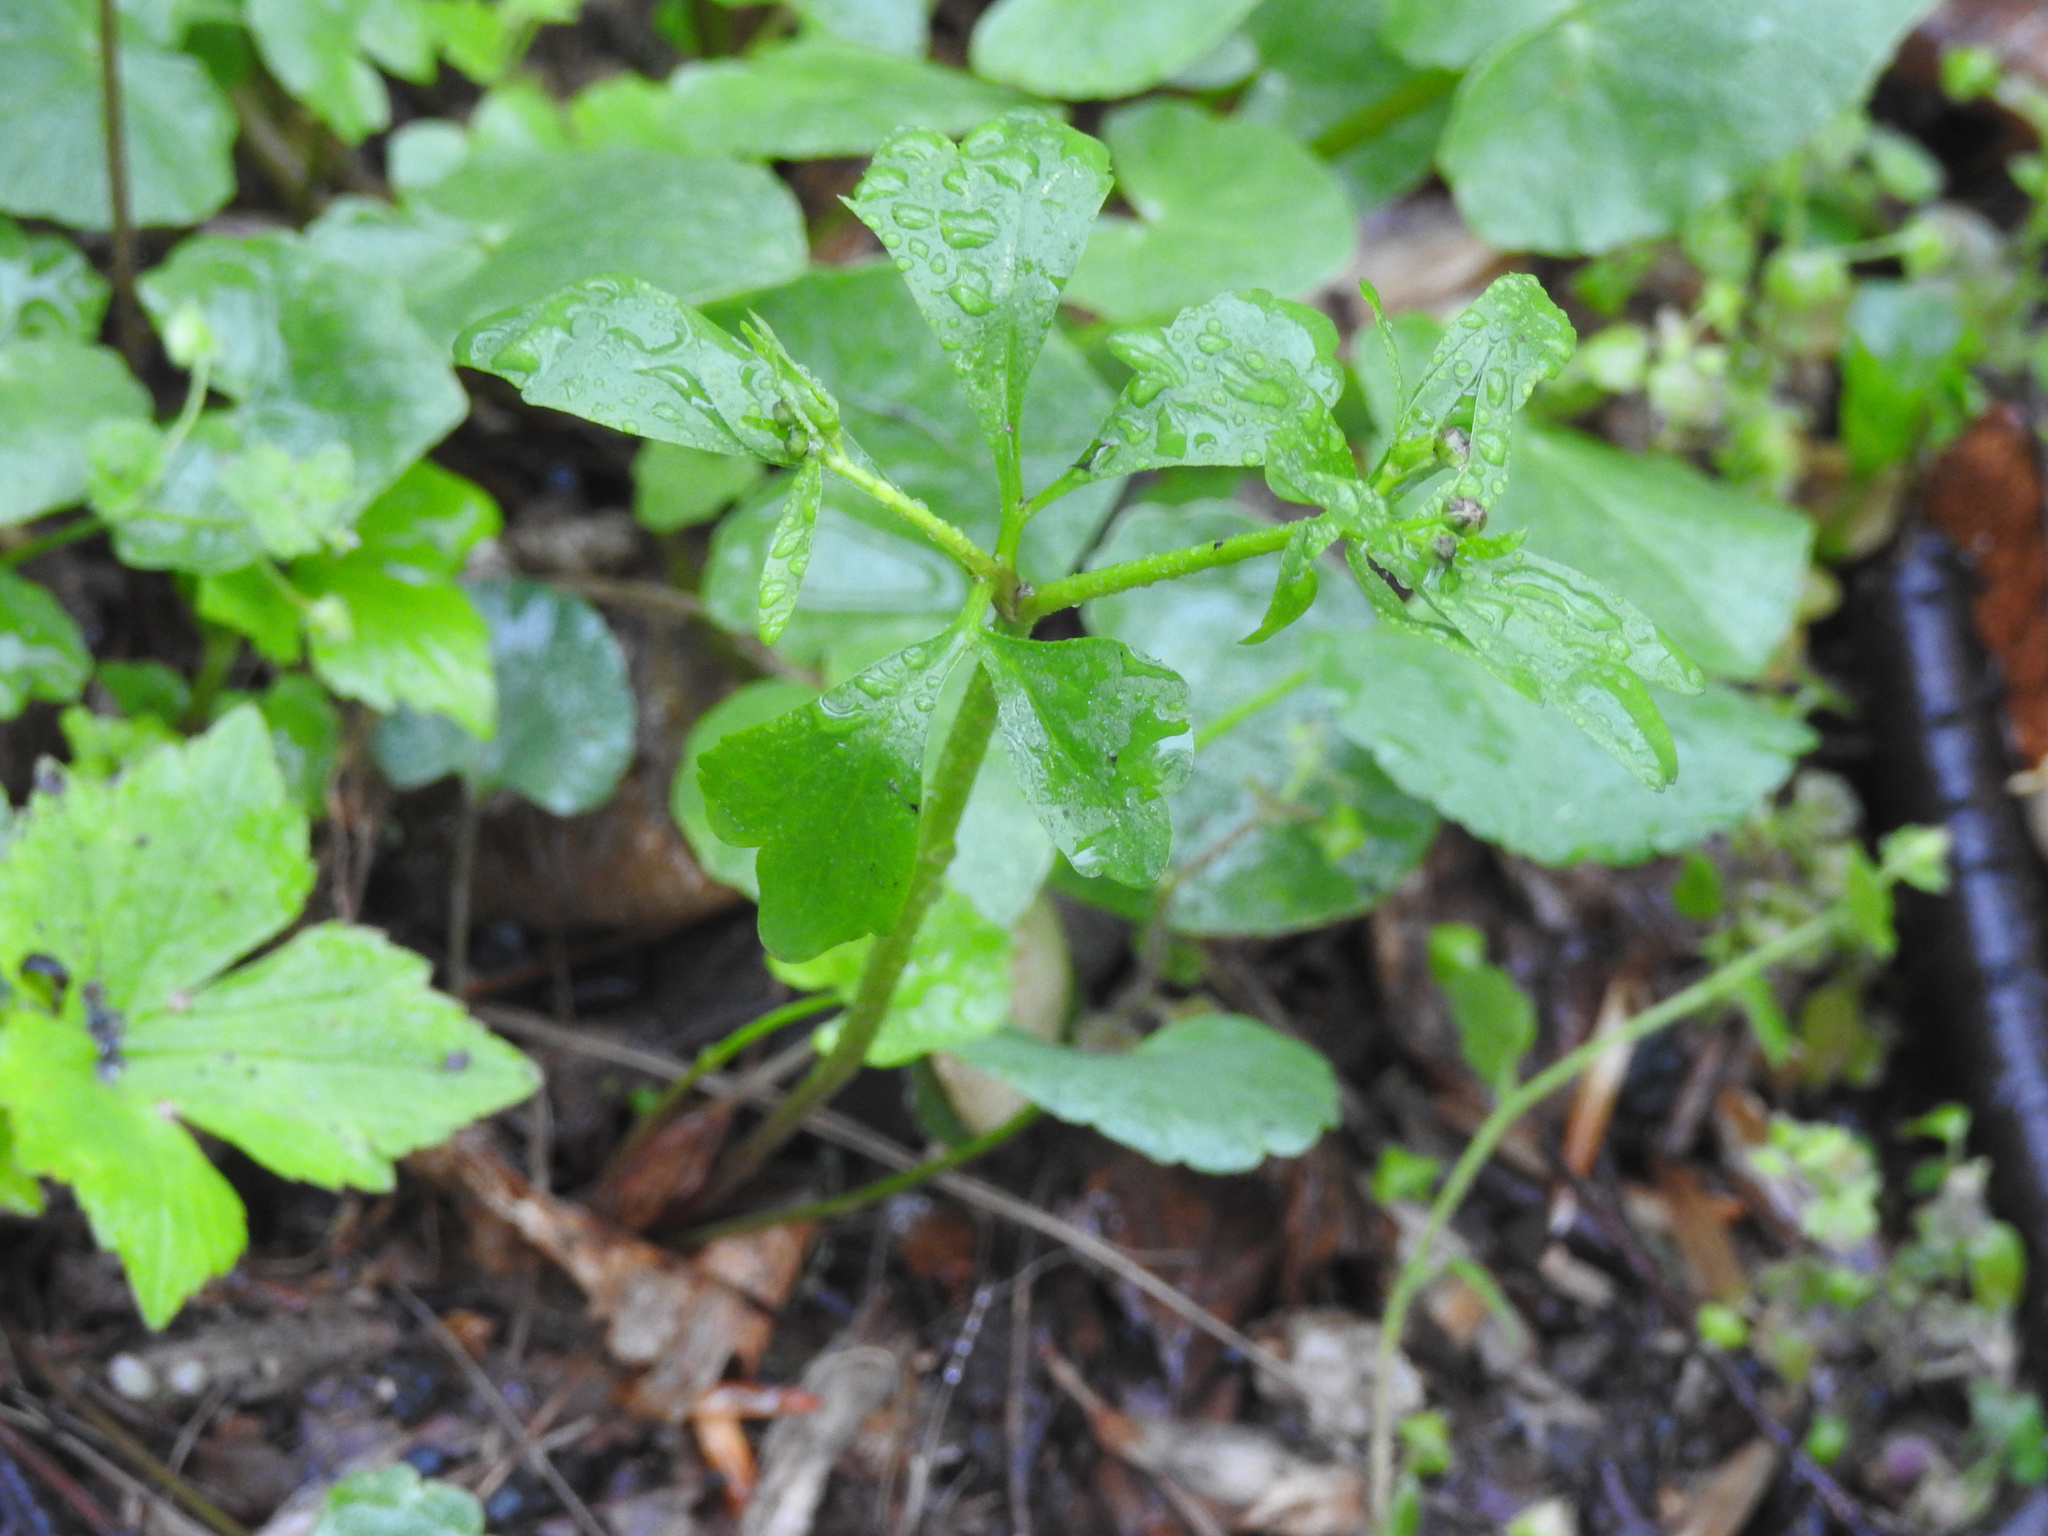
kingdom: Plantae
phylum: Tracheophyta
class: Magnoliopsida
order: Ranunculales
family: Ranunculaceae
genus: Ranunculus
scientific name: Ranunculus abortivus
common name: Early wood buttercup
